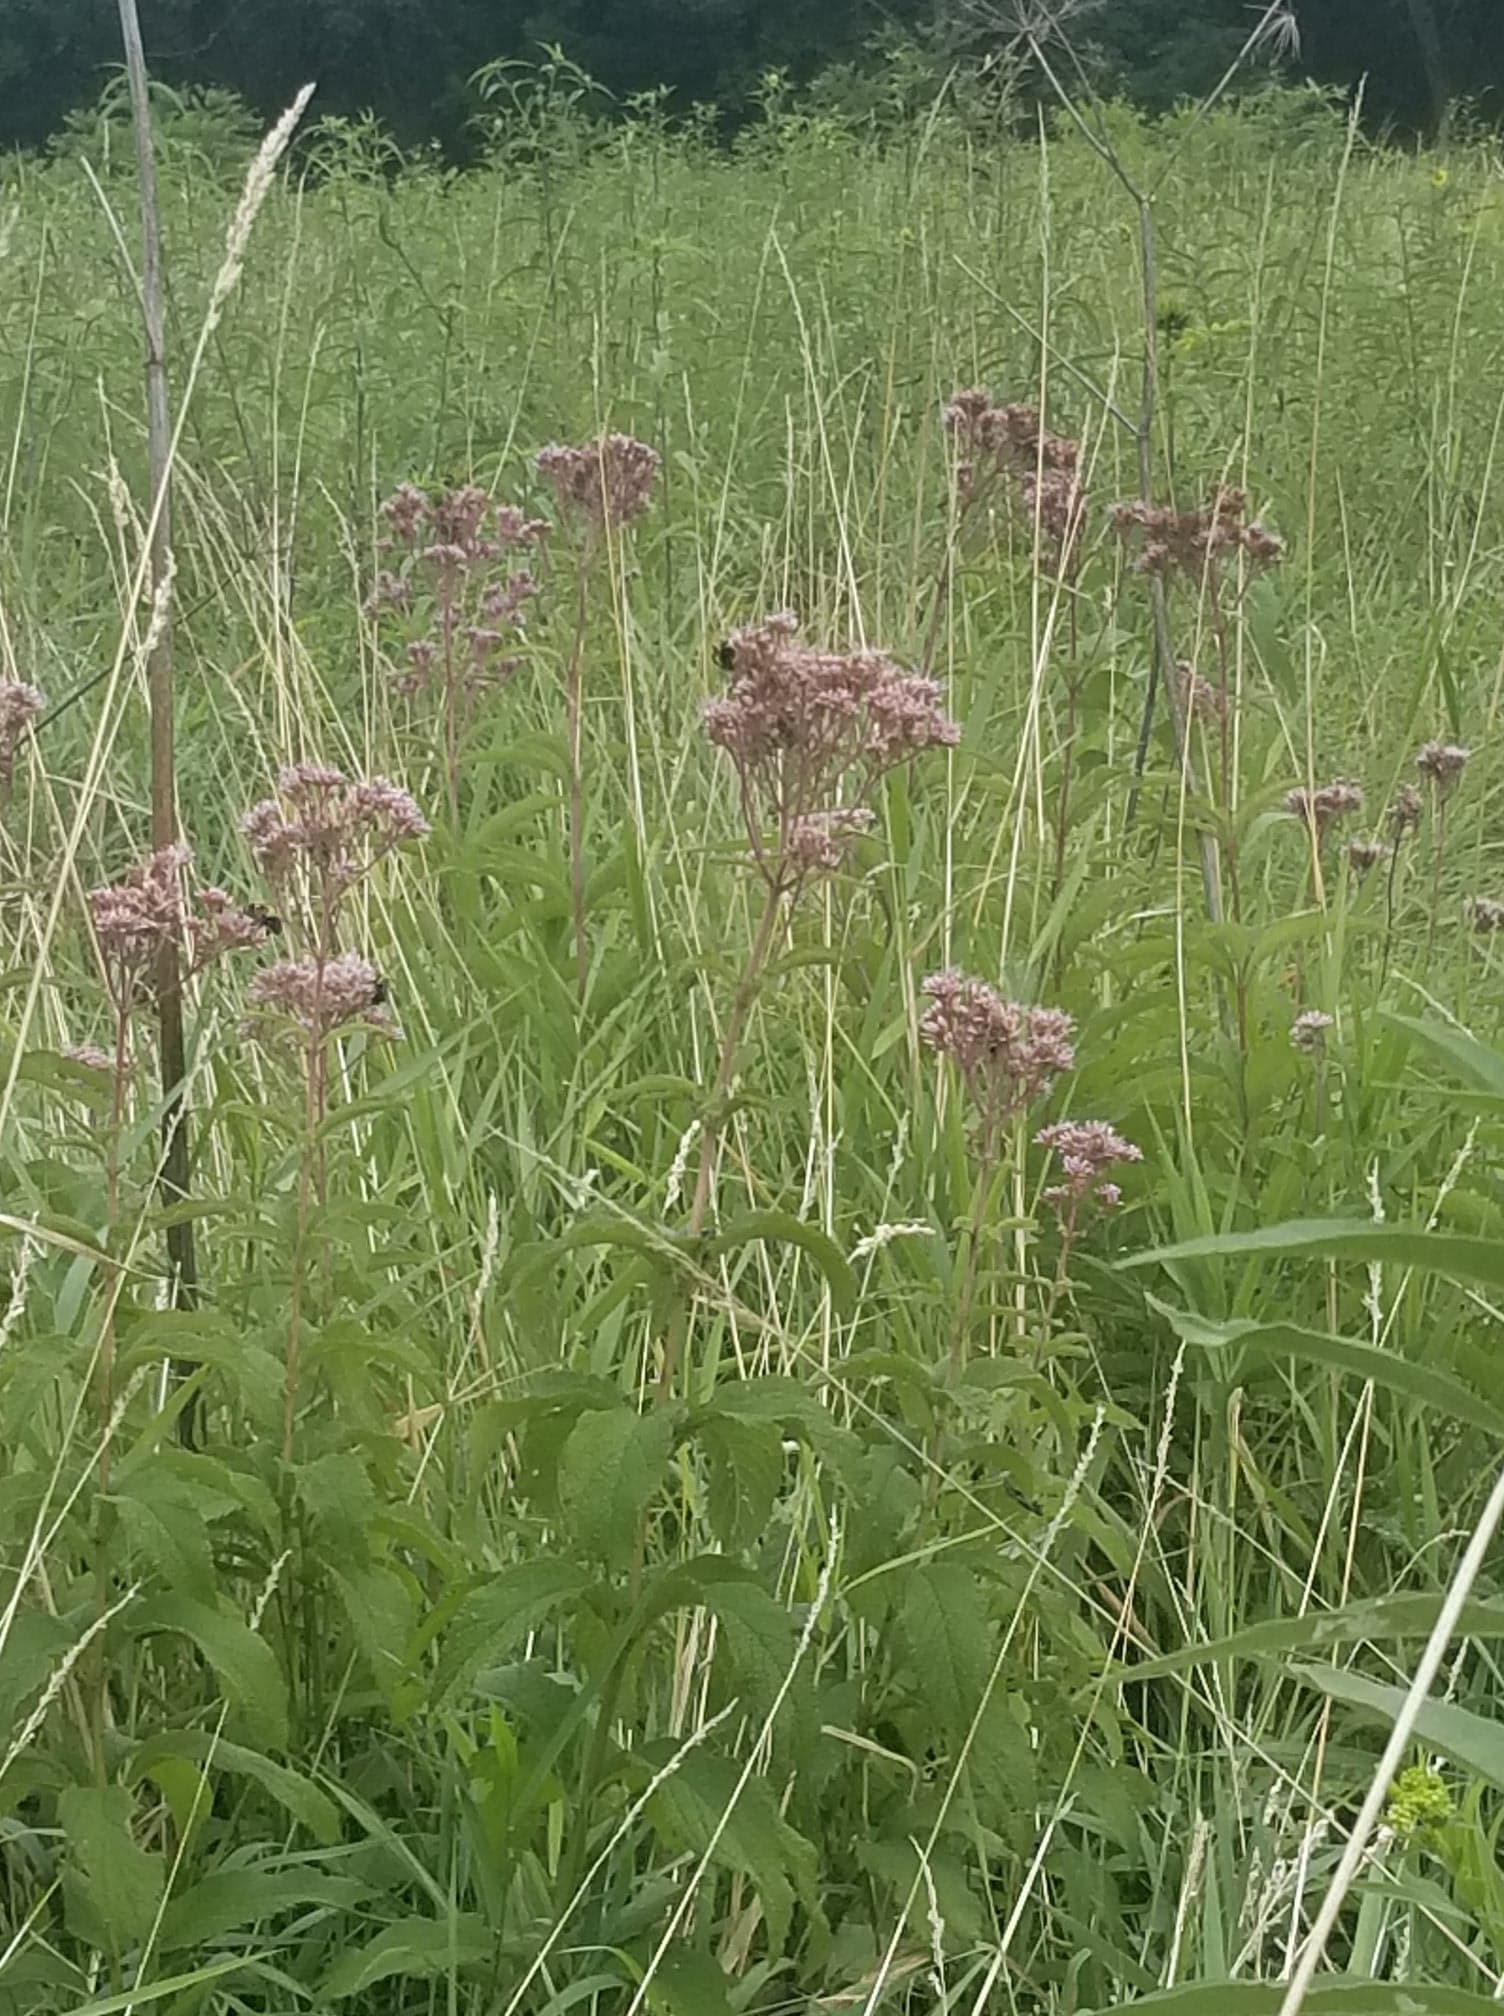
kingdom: Plantae
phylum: Tracheophyta
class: Magnoliopsida
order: Asterales
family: Asteraceae
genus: Eutrochium
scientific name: Eutrochium maculatum
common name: Spotted joe pye weed
